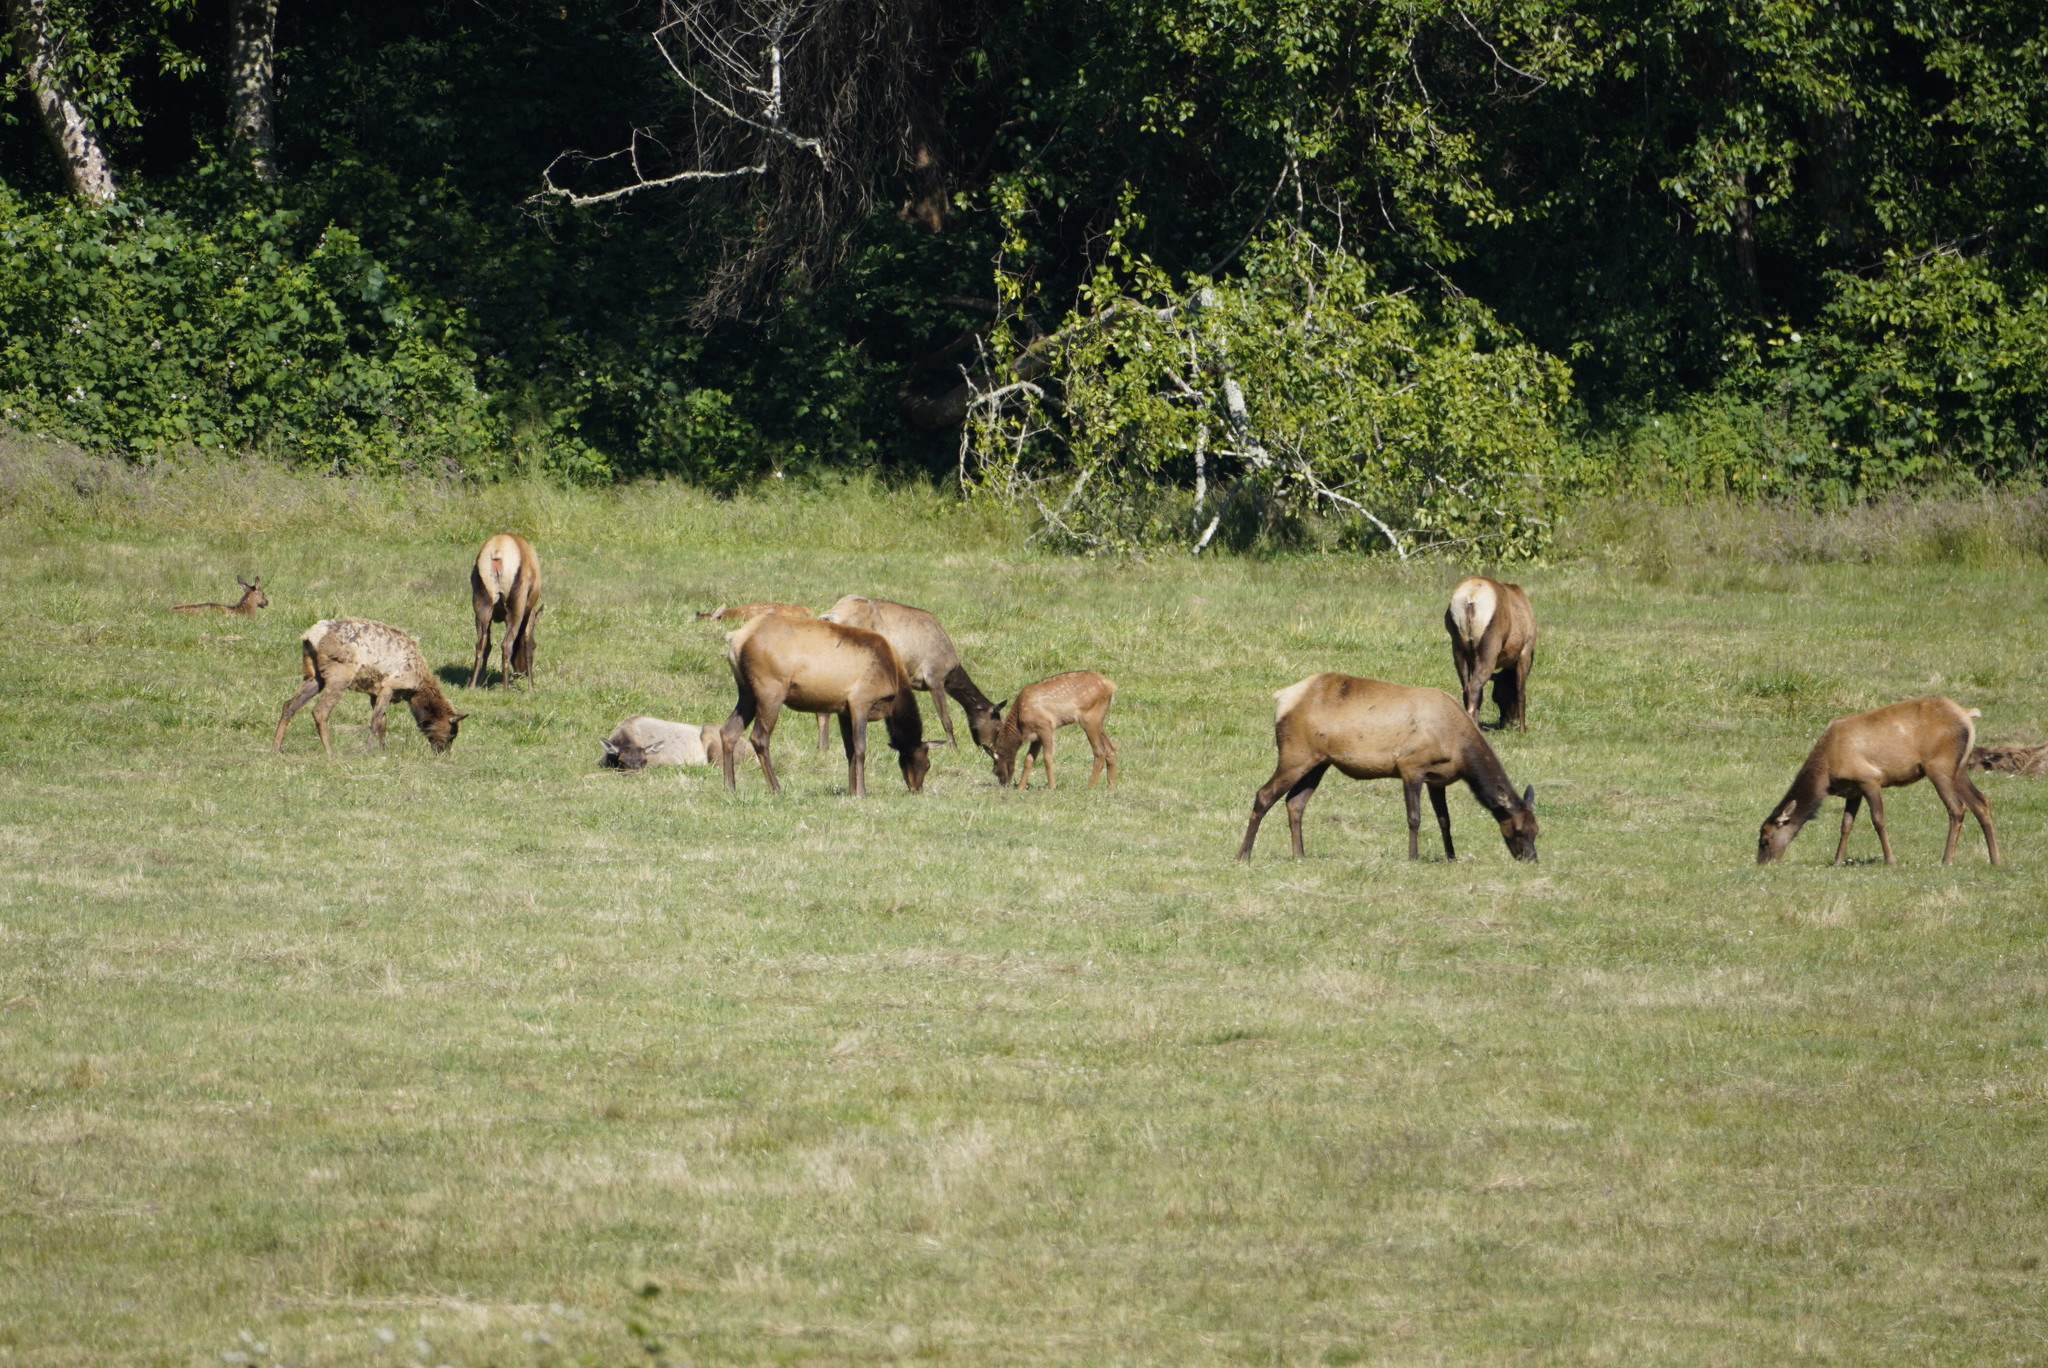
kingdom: Animalia
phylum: Chordata
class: Mammalia
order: Artiodactyla
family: Cervidae
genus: Cervus
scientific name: Cervus elaphus
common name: Red deer
